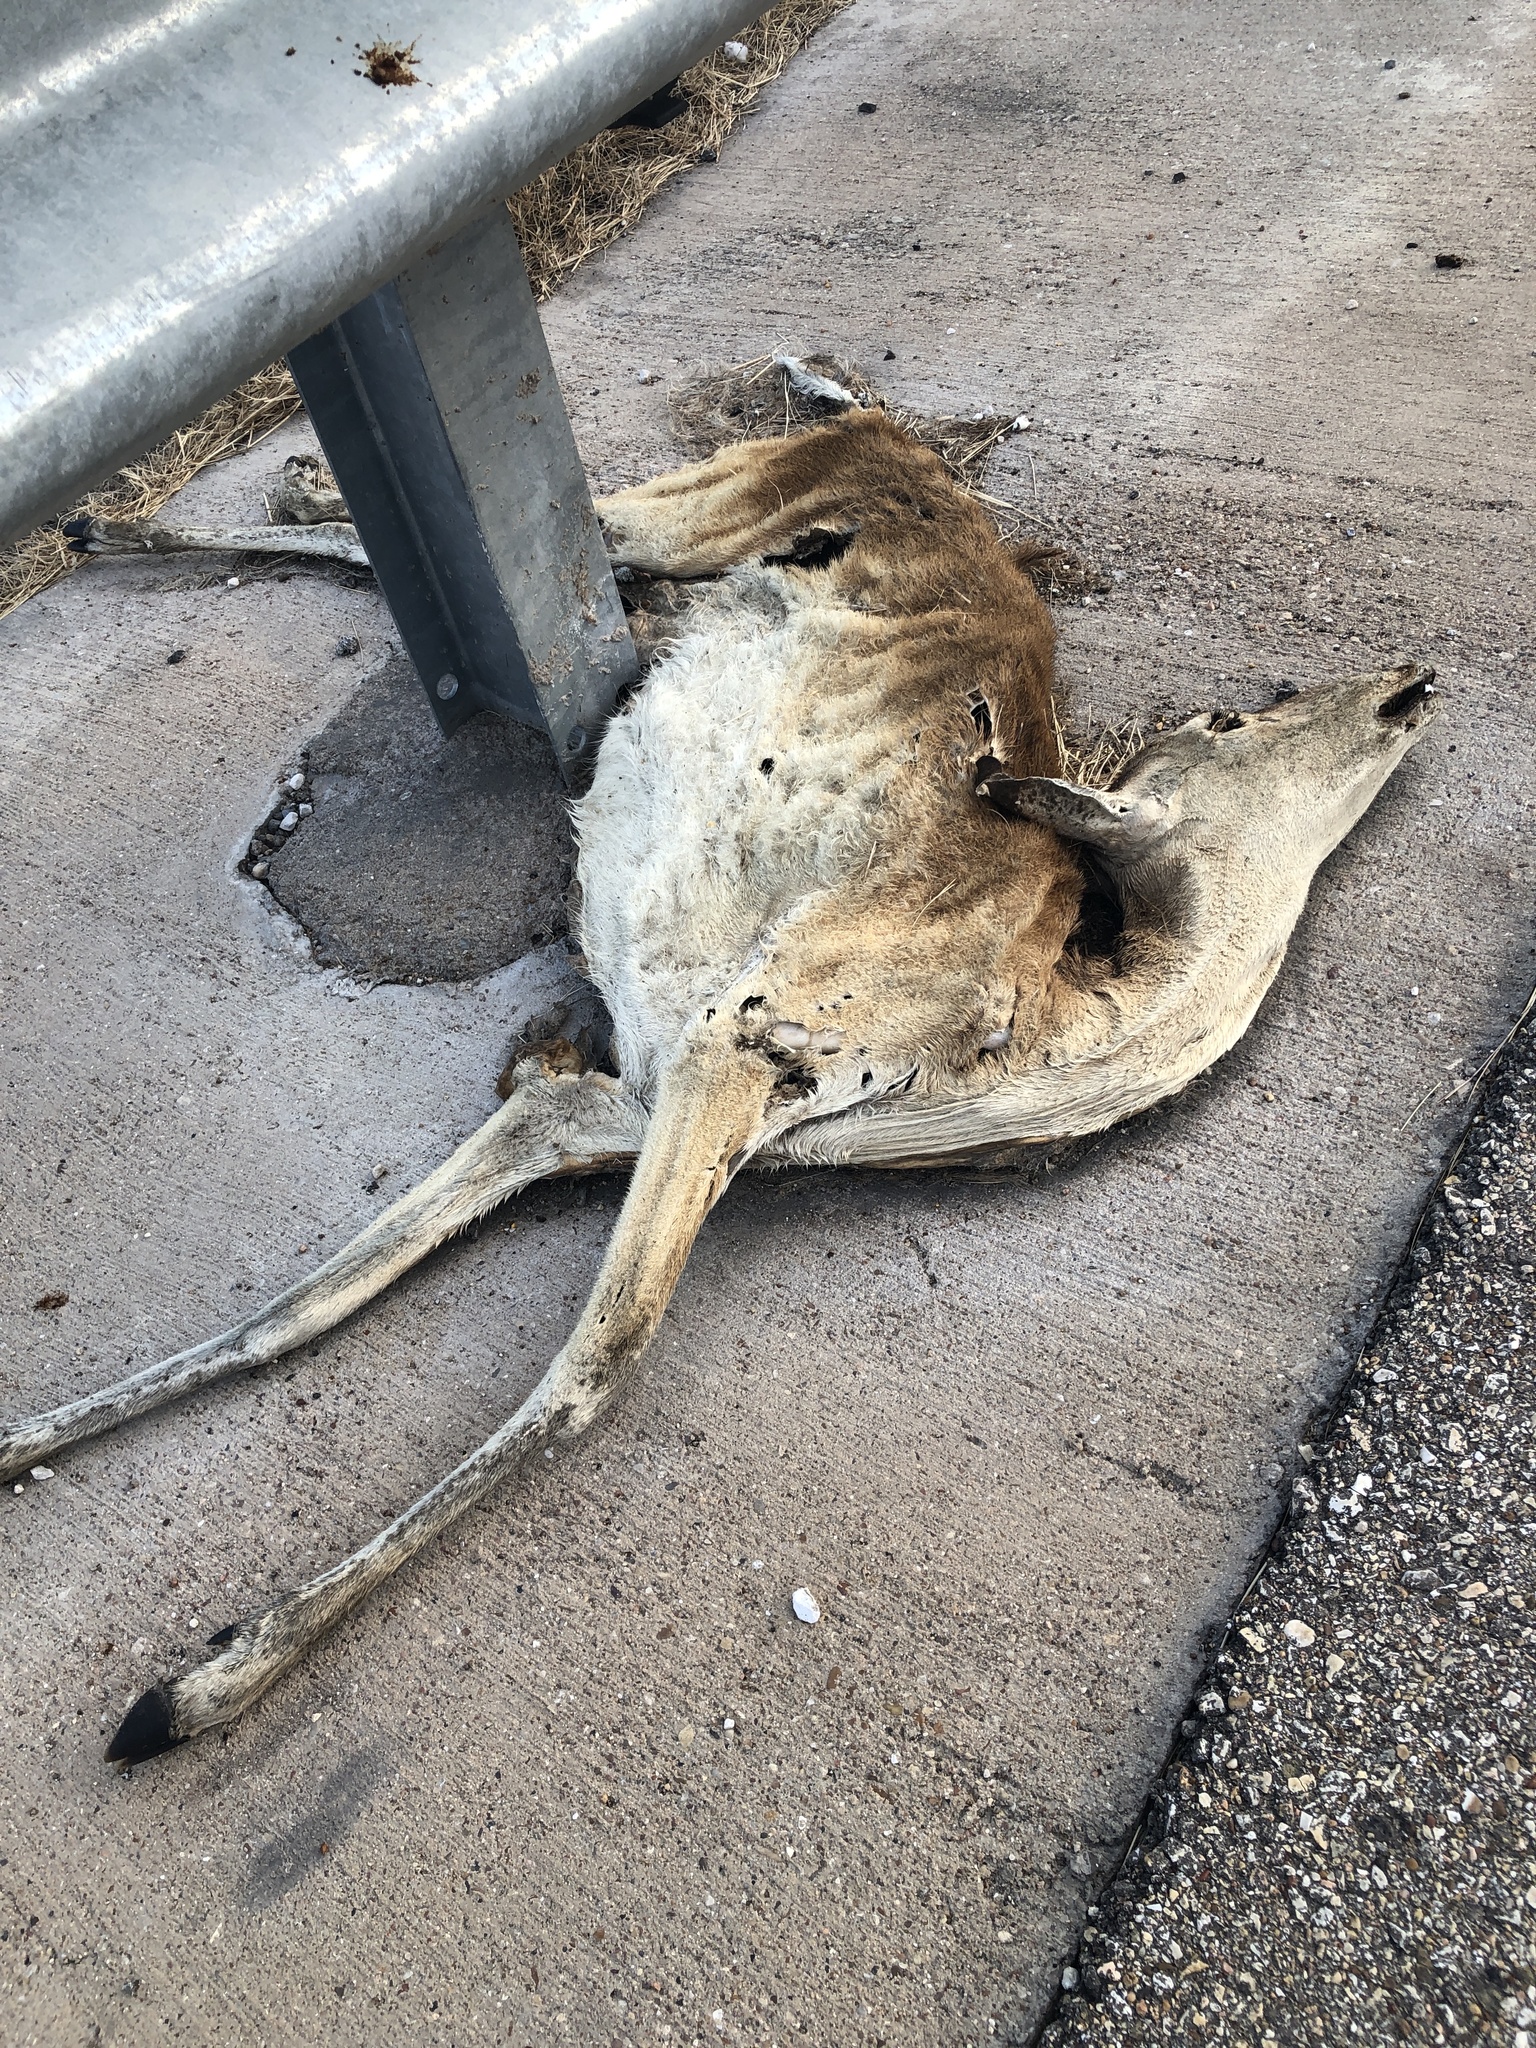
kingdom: Animalia
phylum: Chordata
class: Mammalia
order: Artiodactyla
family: Cervidae
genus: Odocoileus
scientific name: Odocoileus virginianus
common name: White-tailed deer
